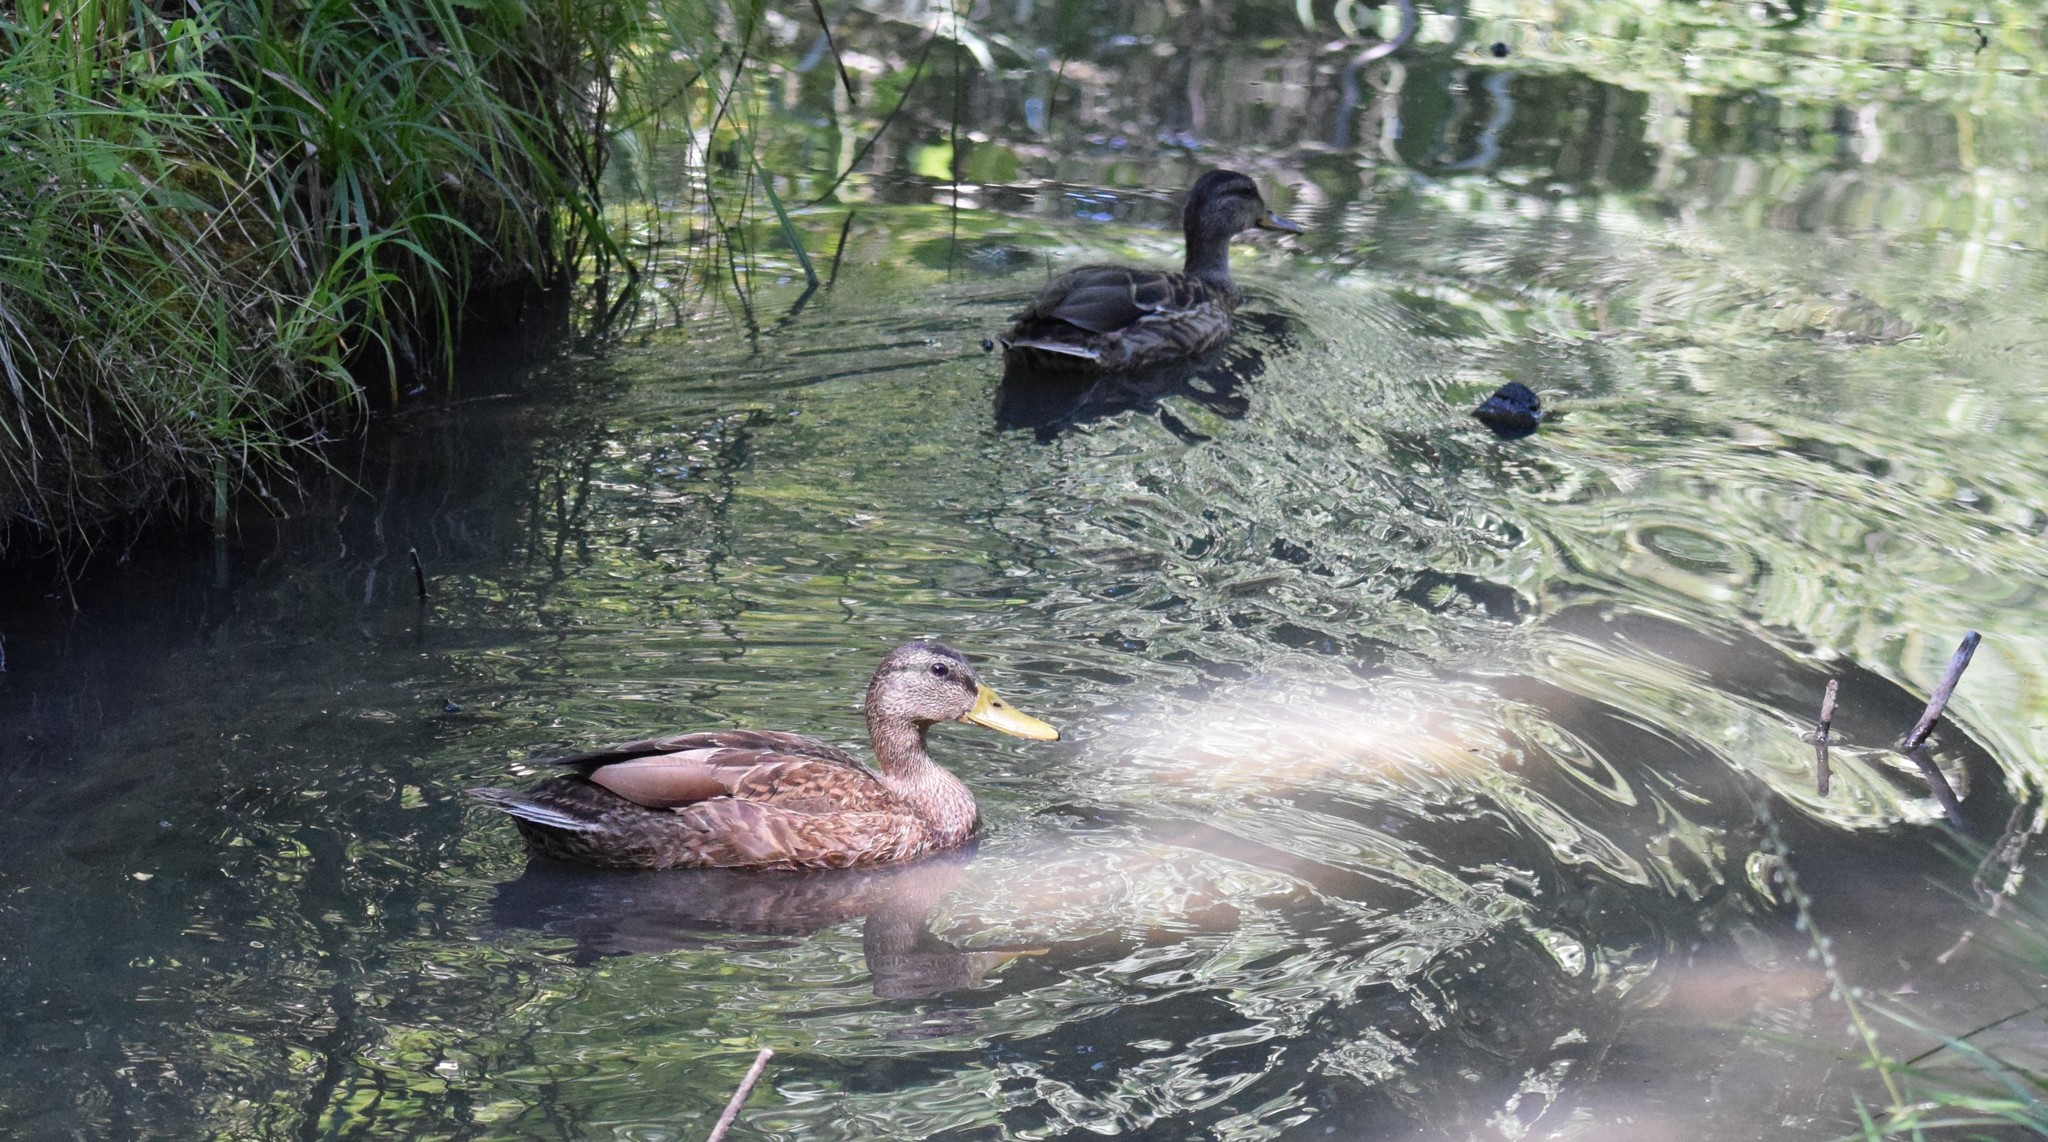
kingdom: Animalia
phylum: Chordata
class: Aves
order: Anseriformes
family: Anatidae
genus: Anas
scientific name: Anas platyrhynchos
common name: Mallard
